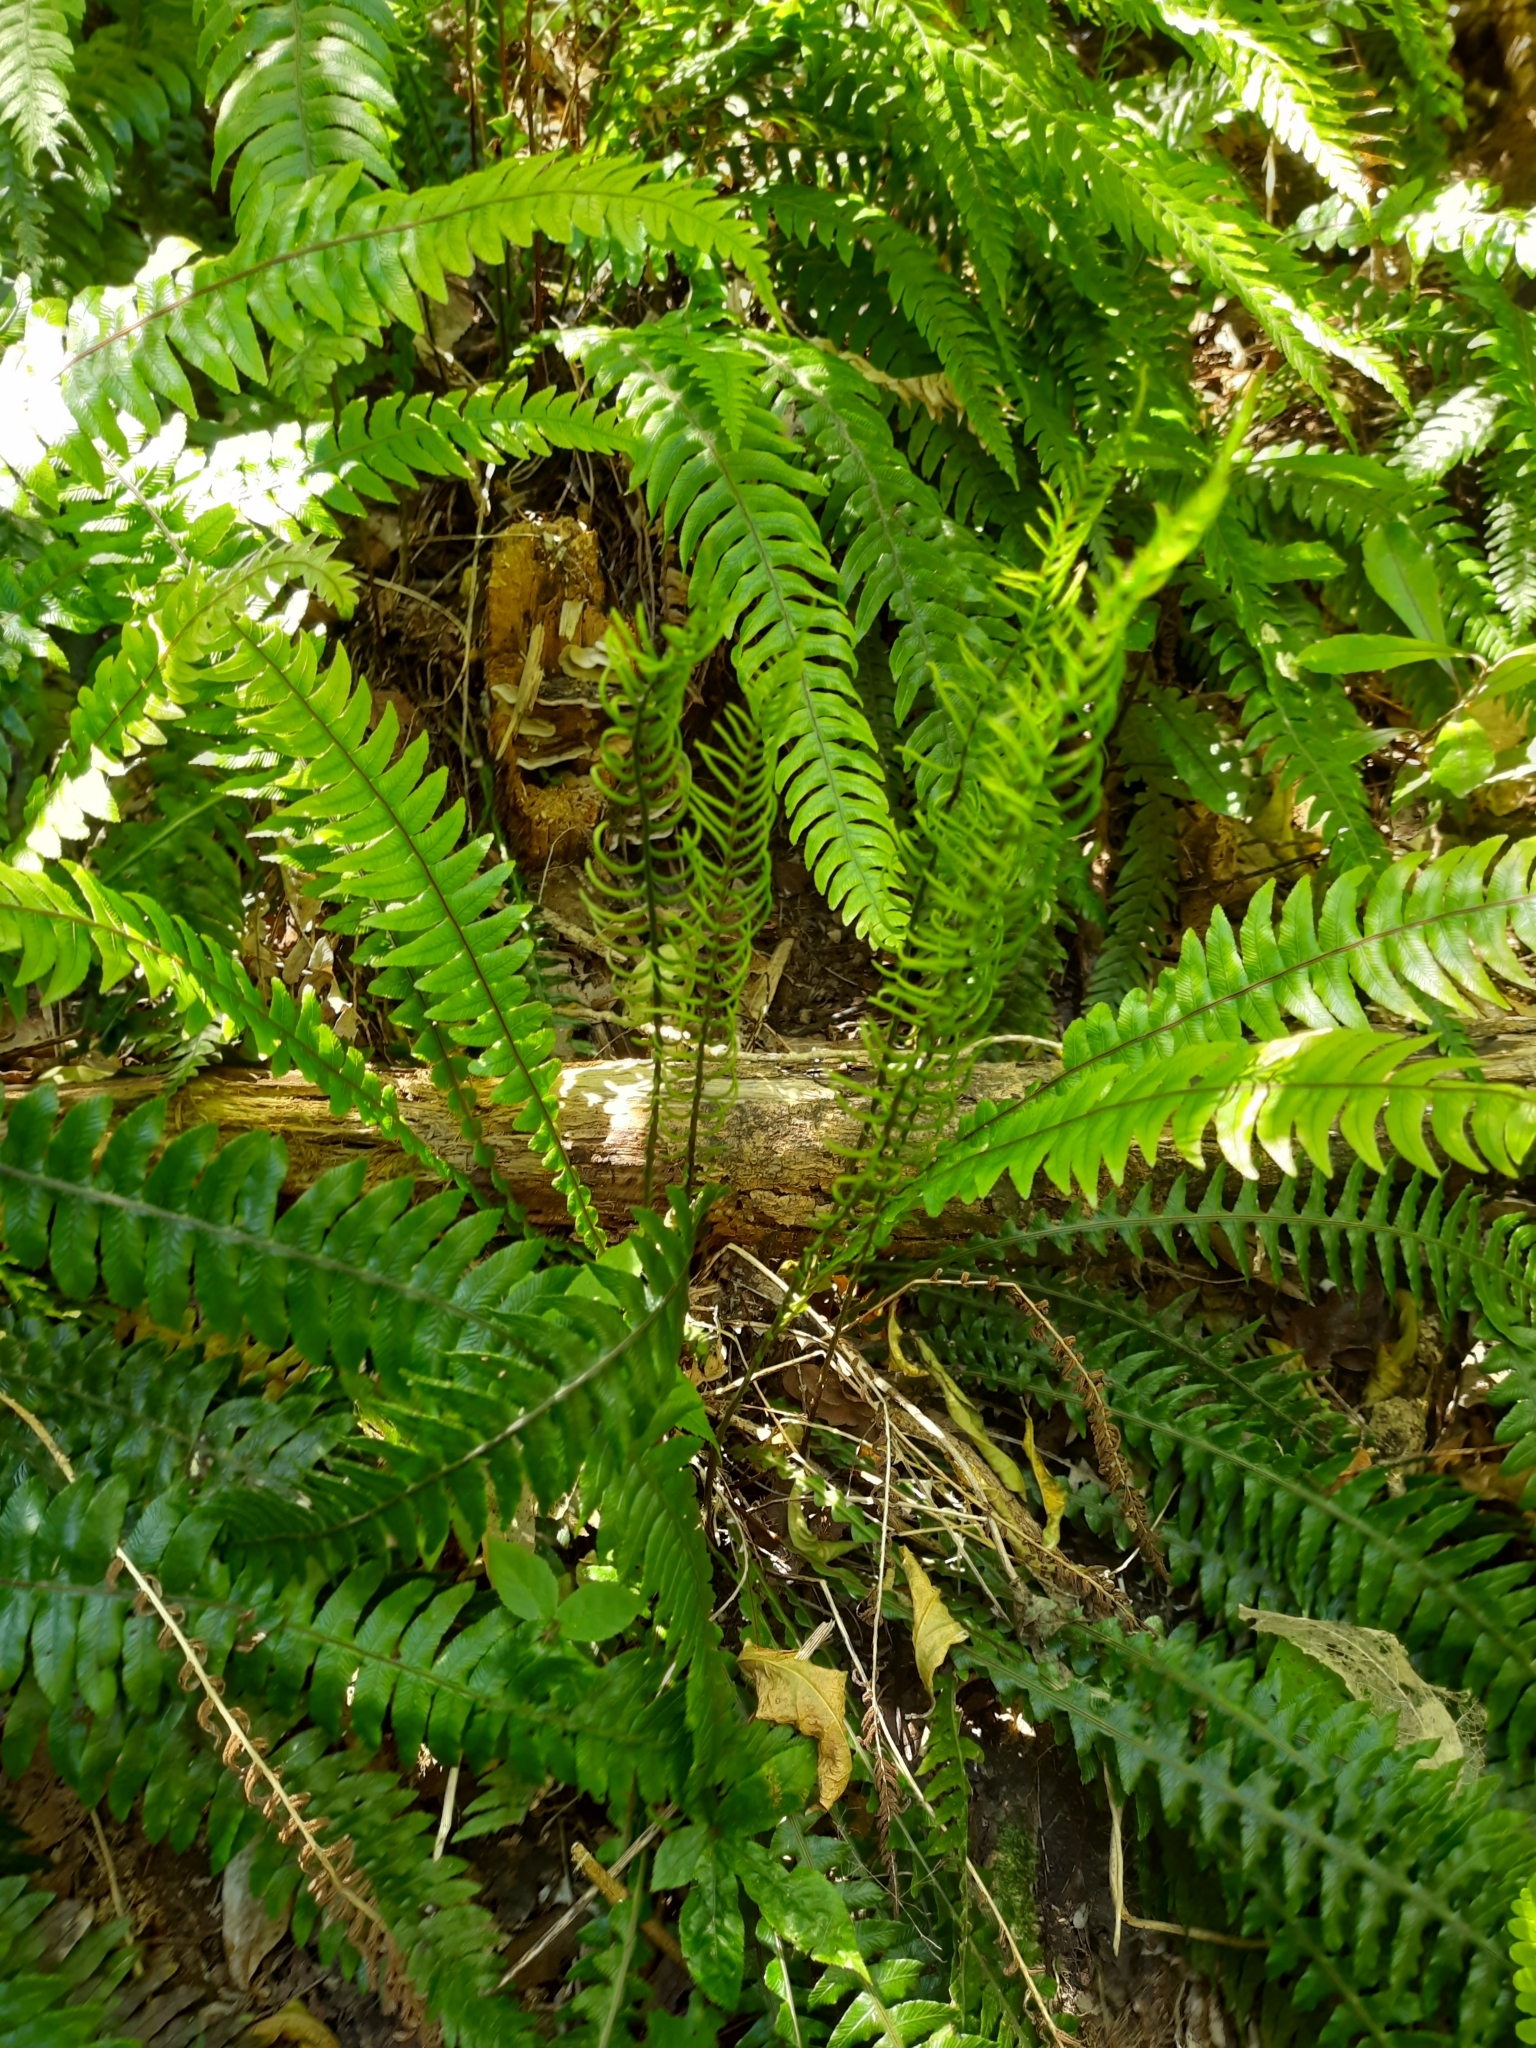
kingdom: Plantae
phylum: Tracheophyta
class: Polypodiopsida
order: Polypodiales
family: Blechnaceae
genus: Austroblechnum
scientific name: Austroblechnum lanceolatum
